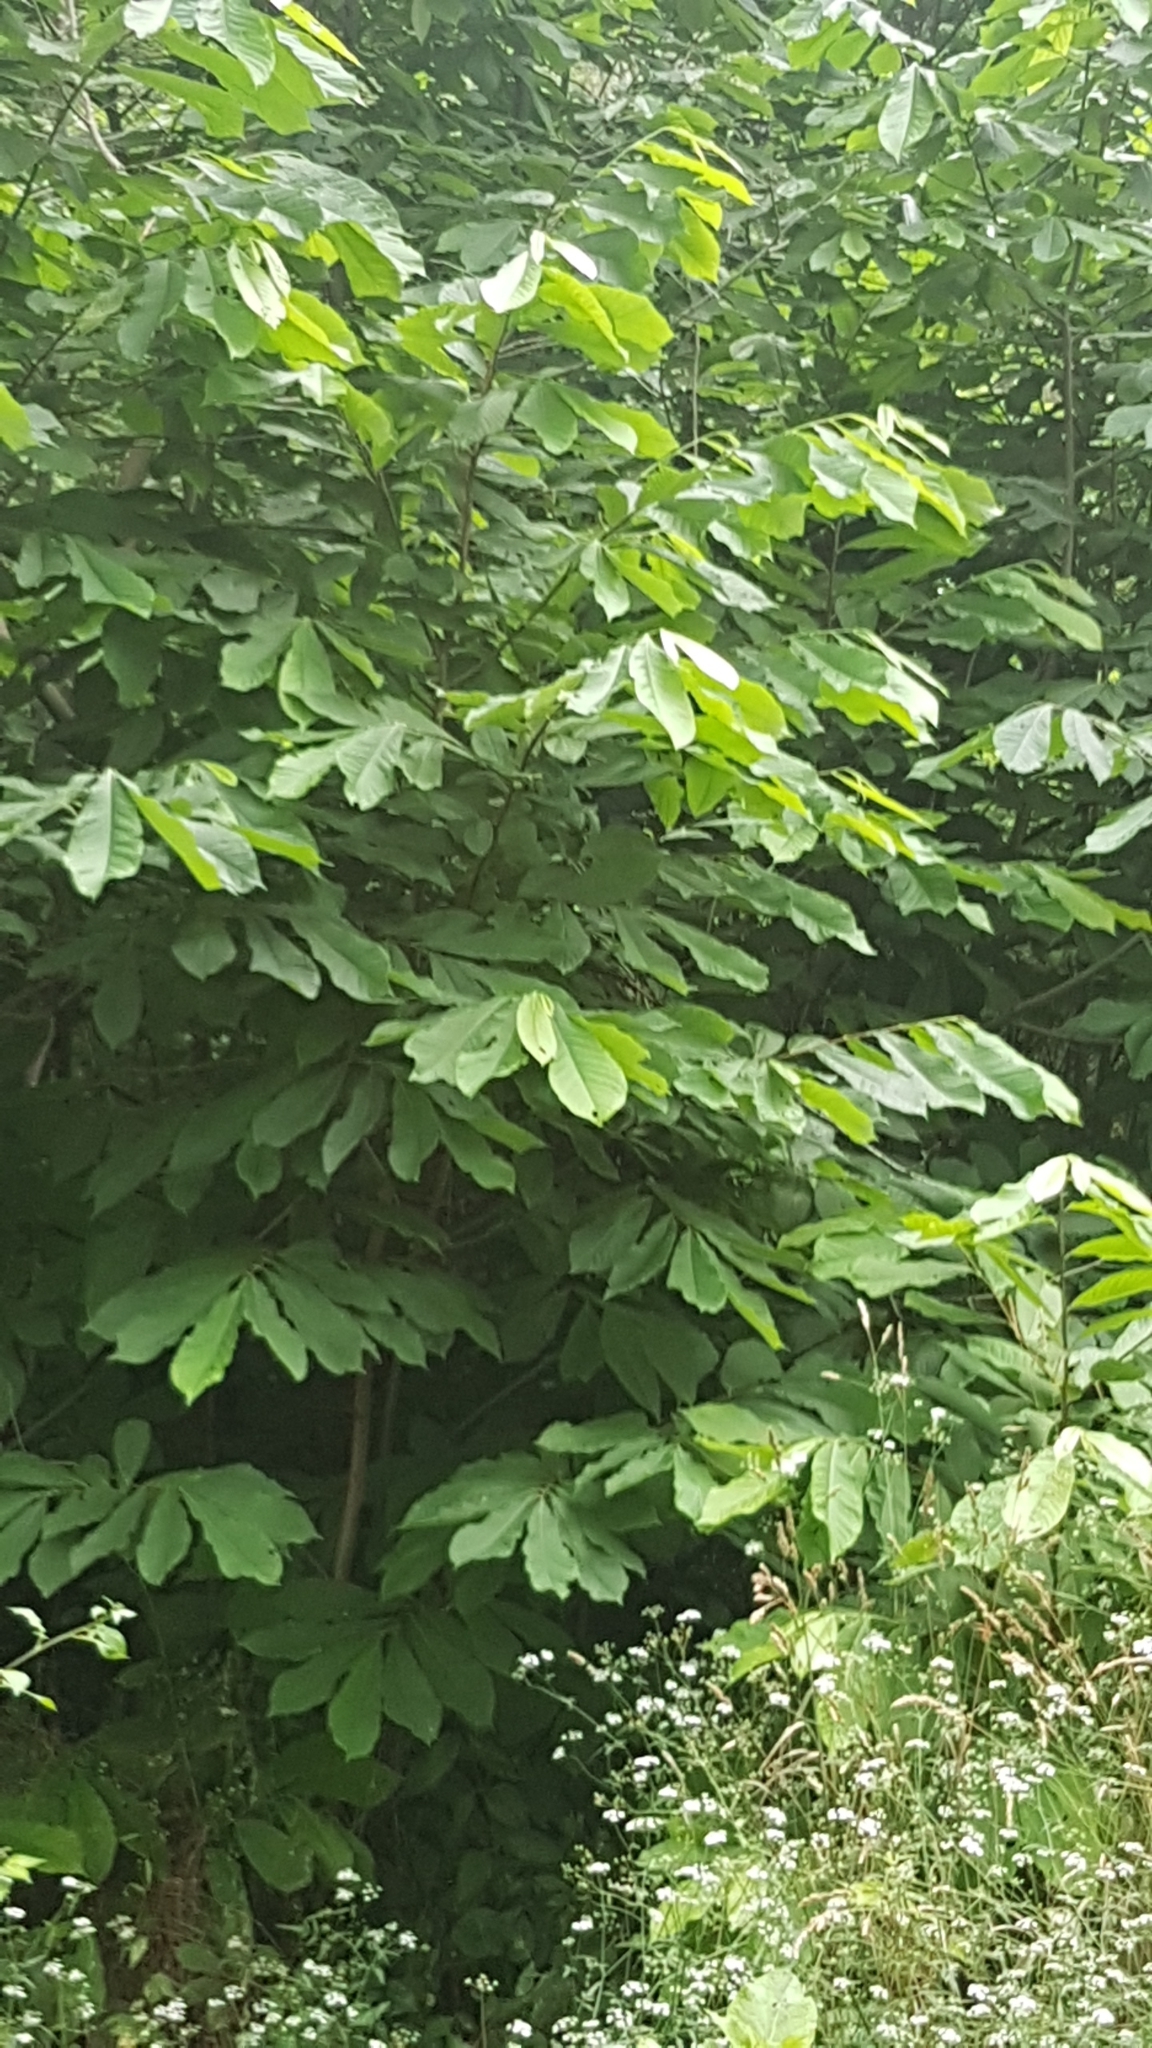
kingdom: Plantae
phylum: Tracheophyta
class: Magnoliopsida
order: Magnoliales
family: Annonaceae
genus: Asimina
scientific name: Asimina triloba
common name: Dog-banana
